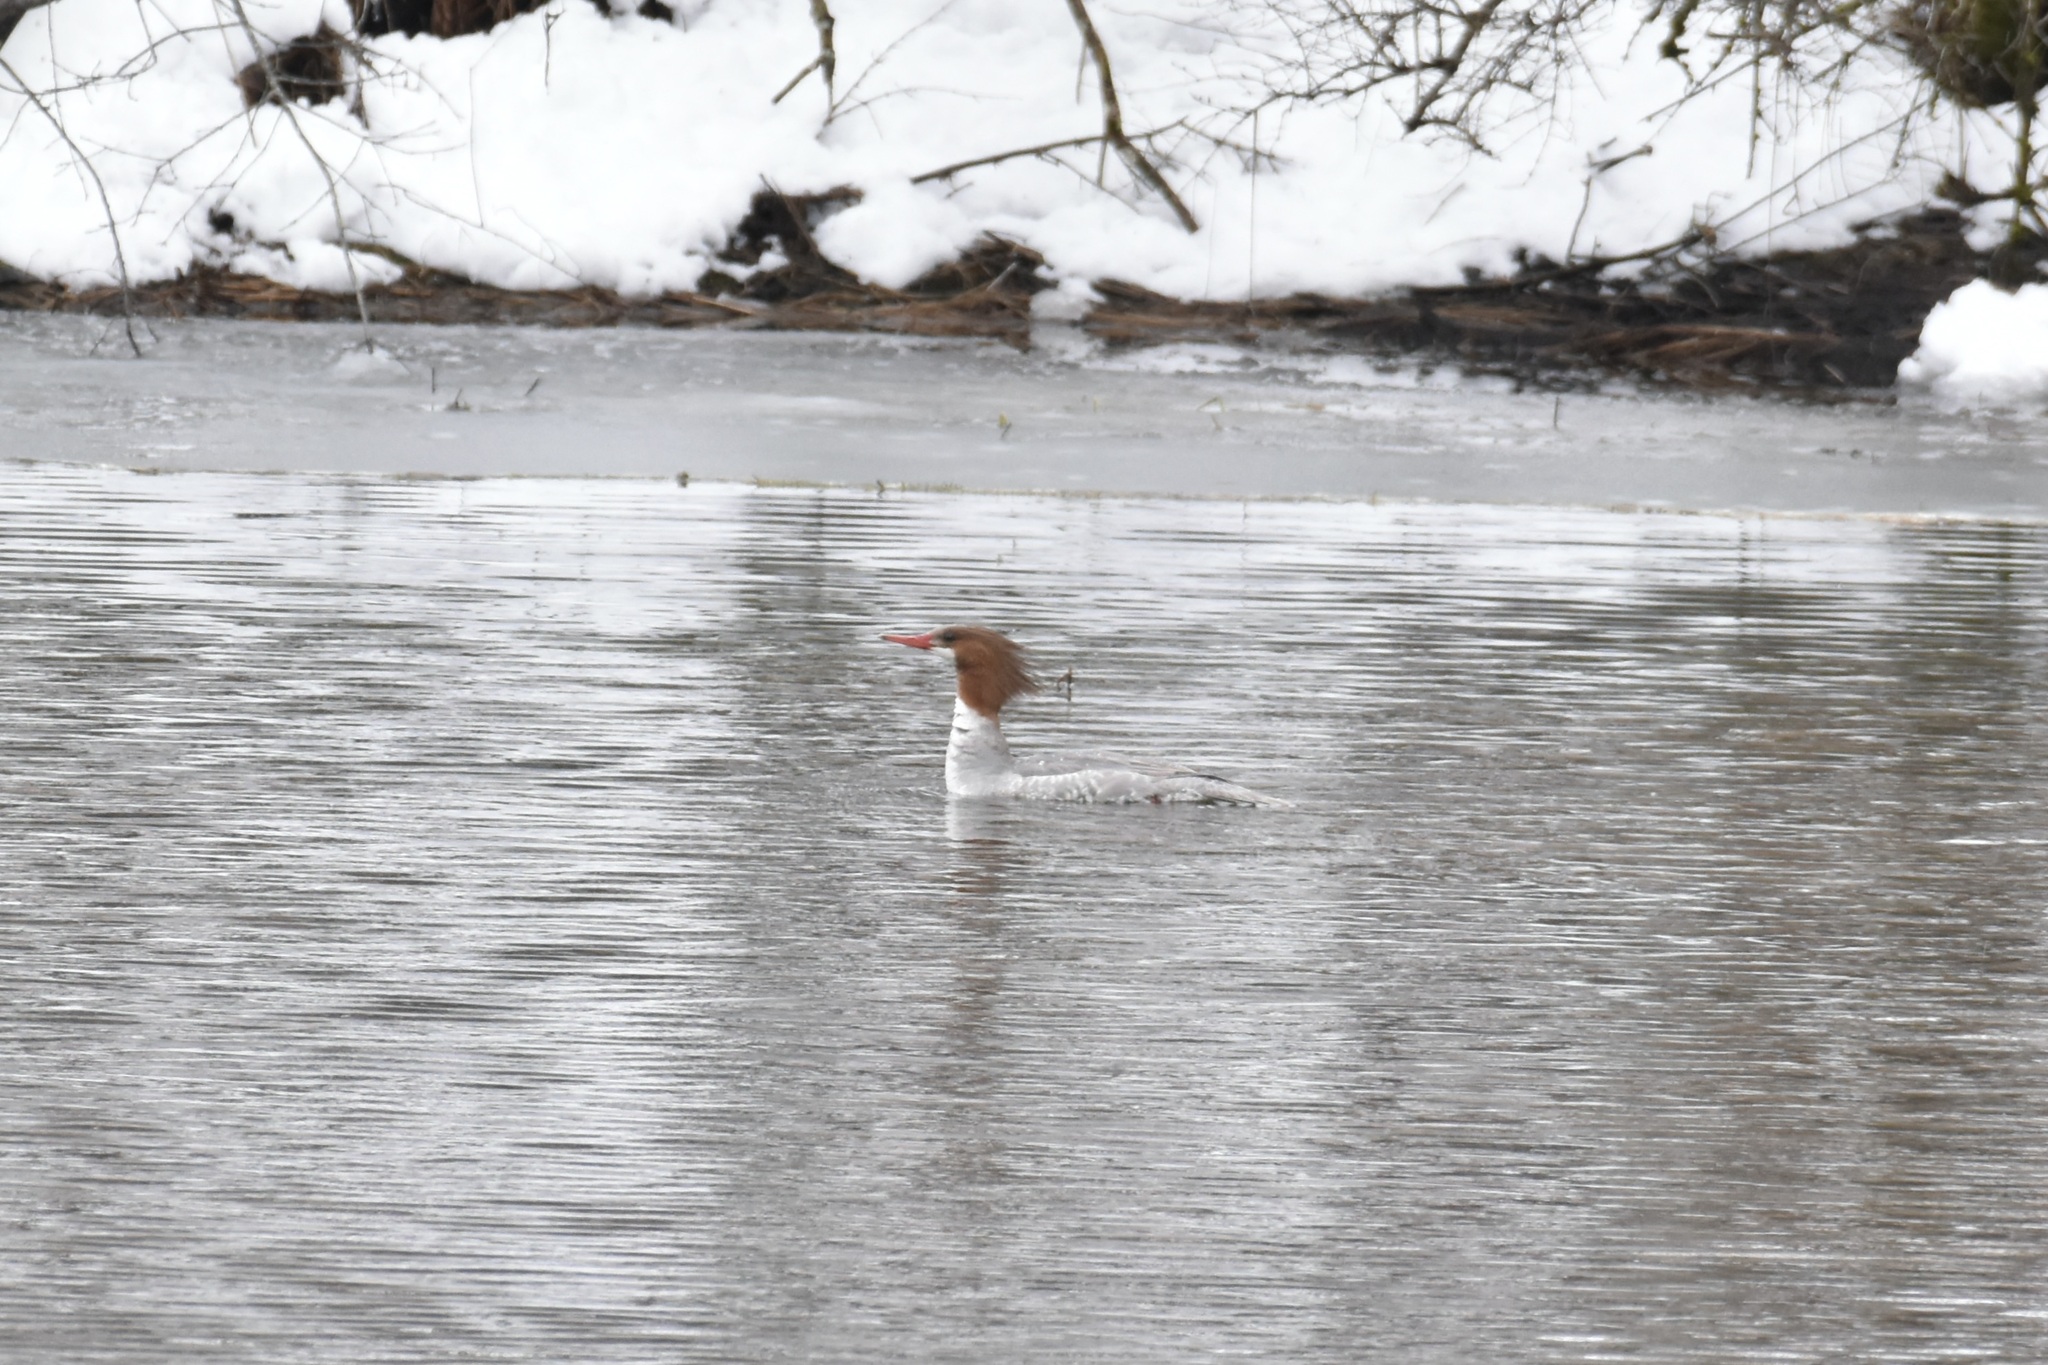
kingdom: Animalia
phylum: Chordata
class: Aves
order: Anseriformes
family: Anatidae
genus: Mergus
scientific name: Mergus merganser
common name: Common merganser
